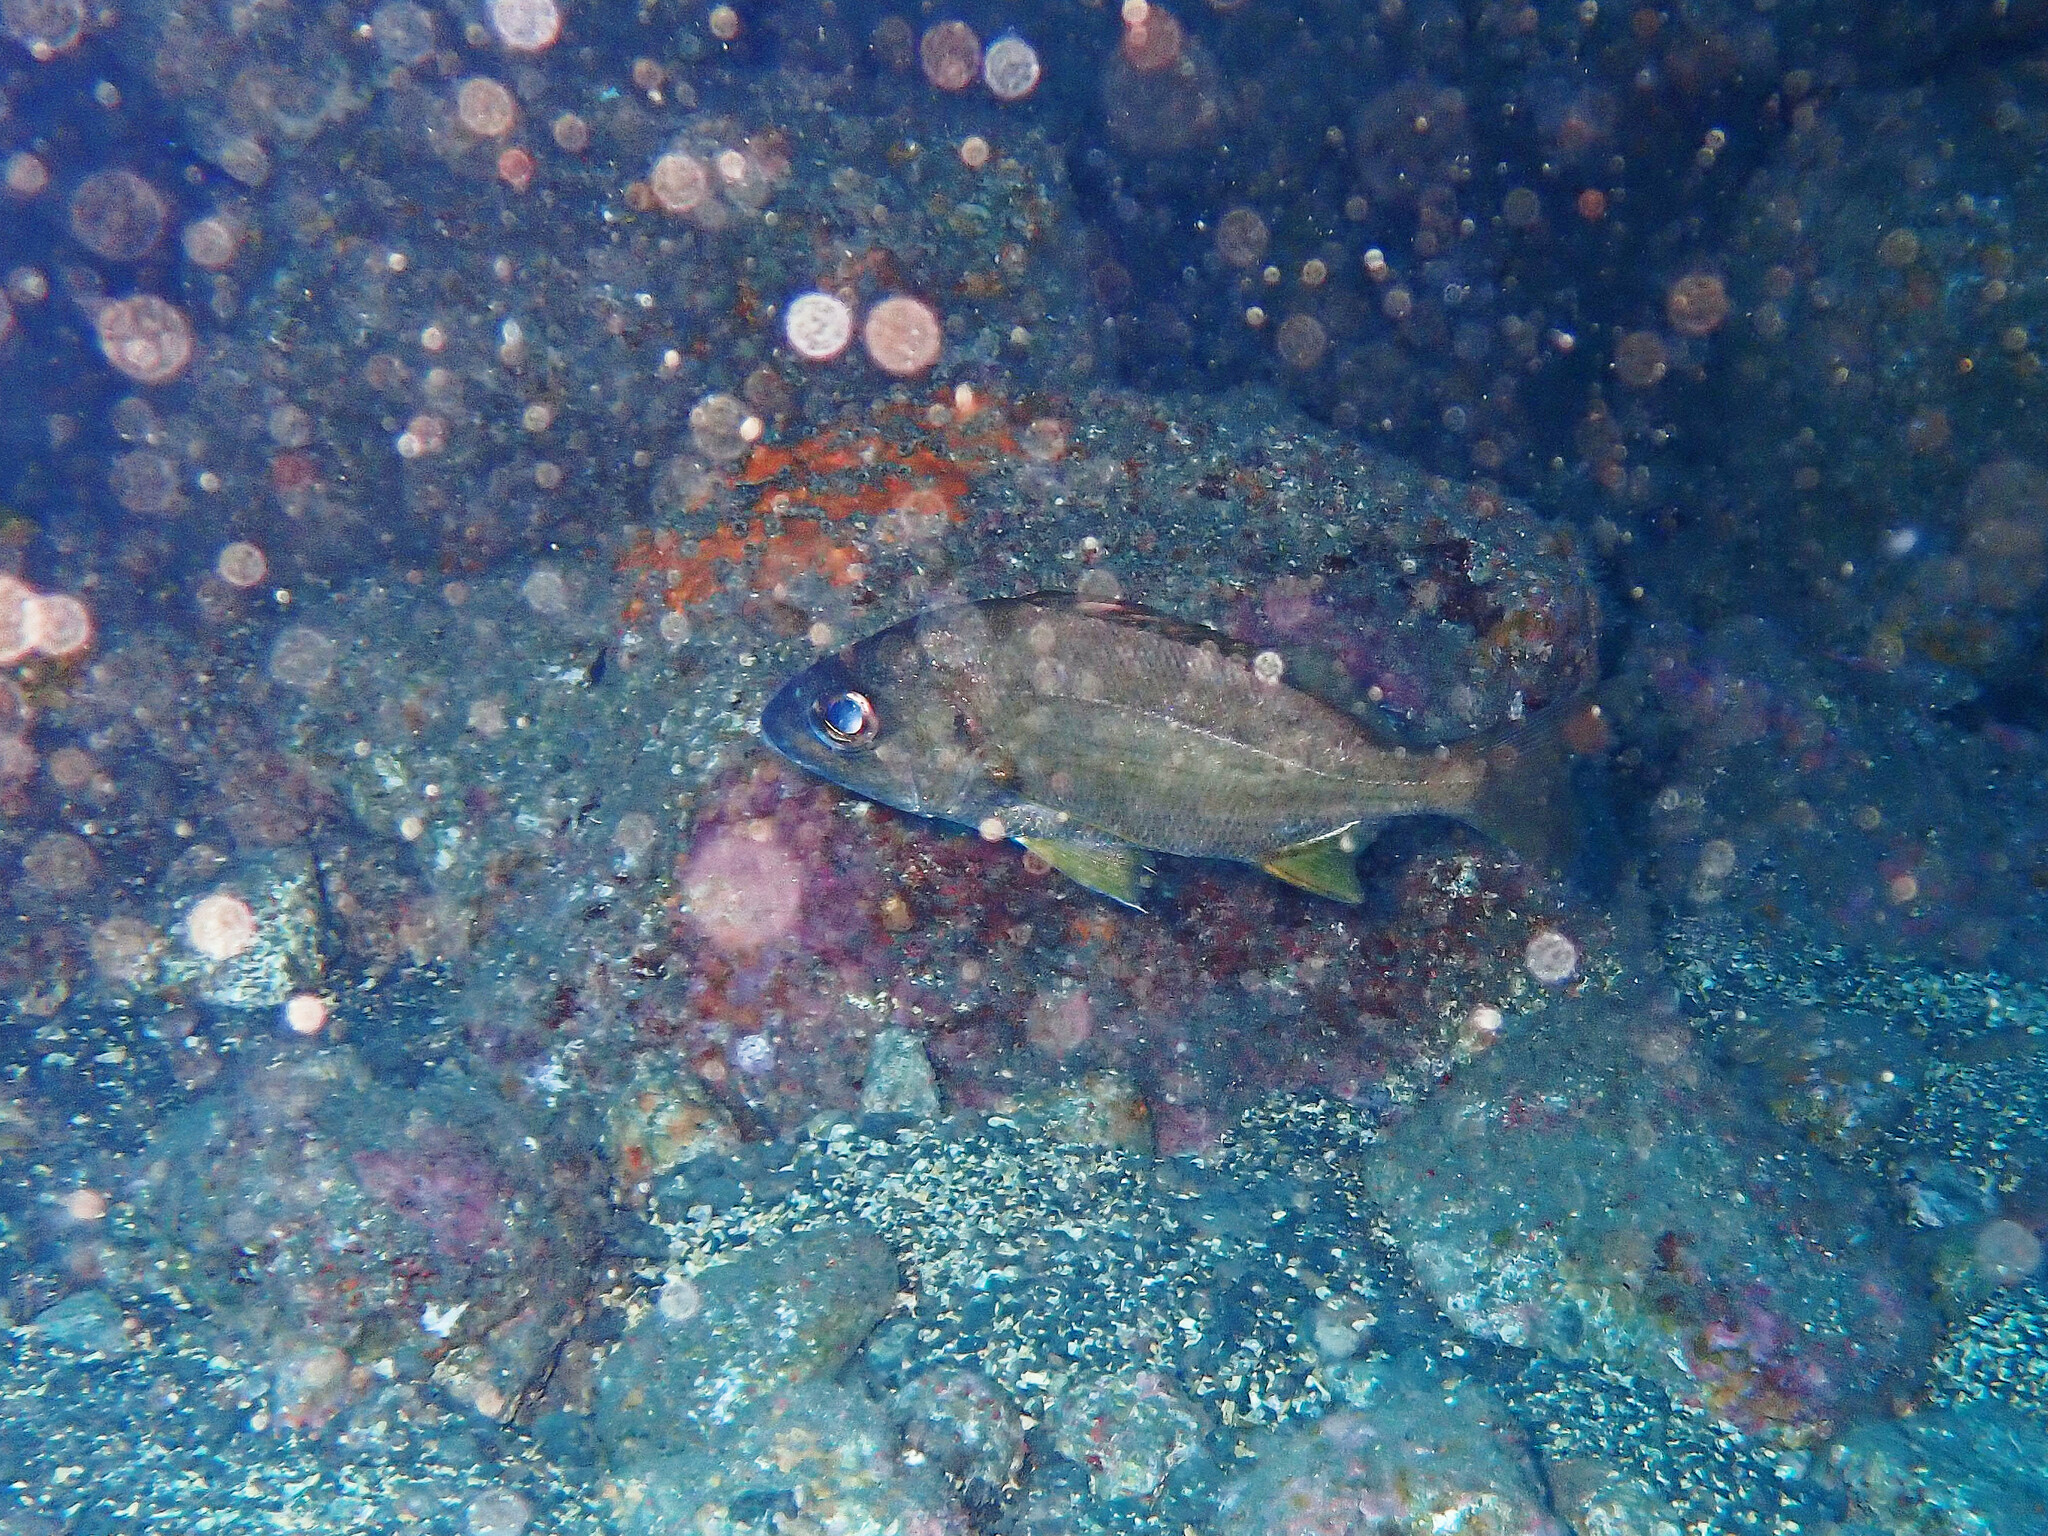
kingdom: Animalia
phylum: Chordata
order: Perciformes
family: Haemulidae
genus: Pomadasys
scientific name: Pomadasys incisus
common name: Bastard grunt
